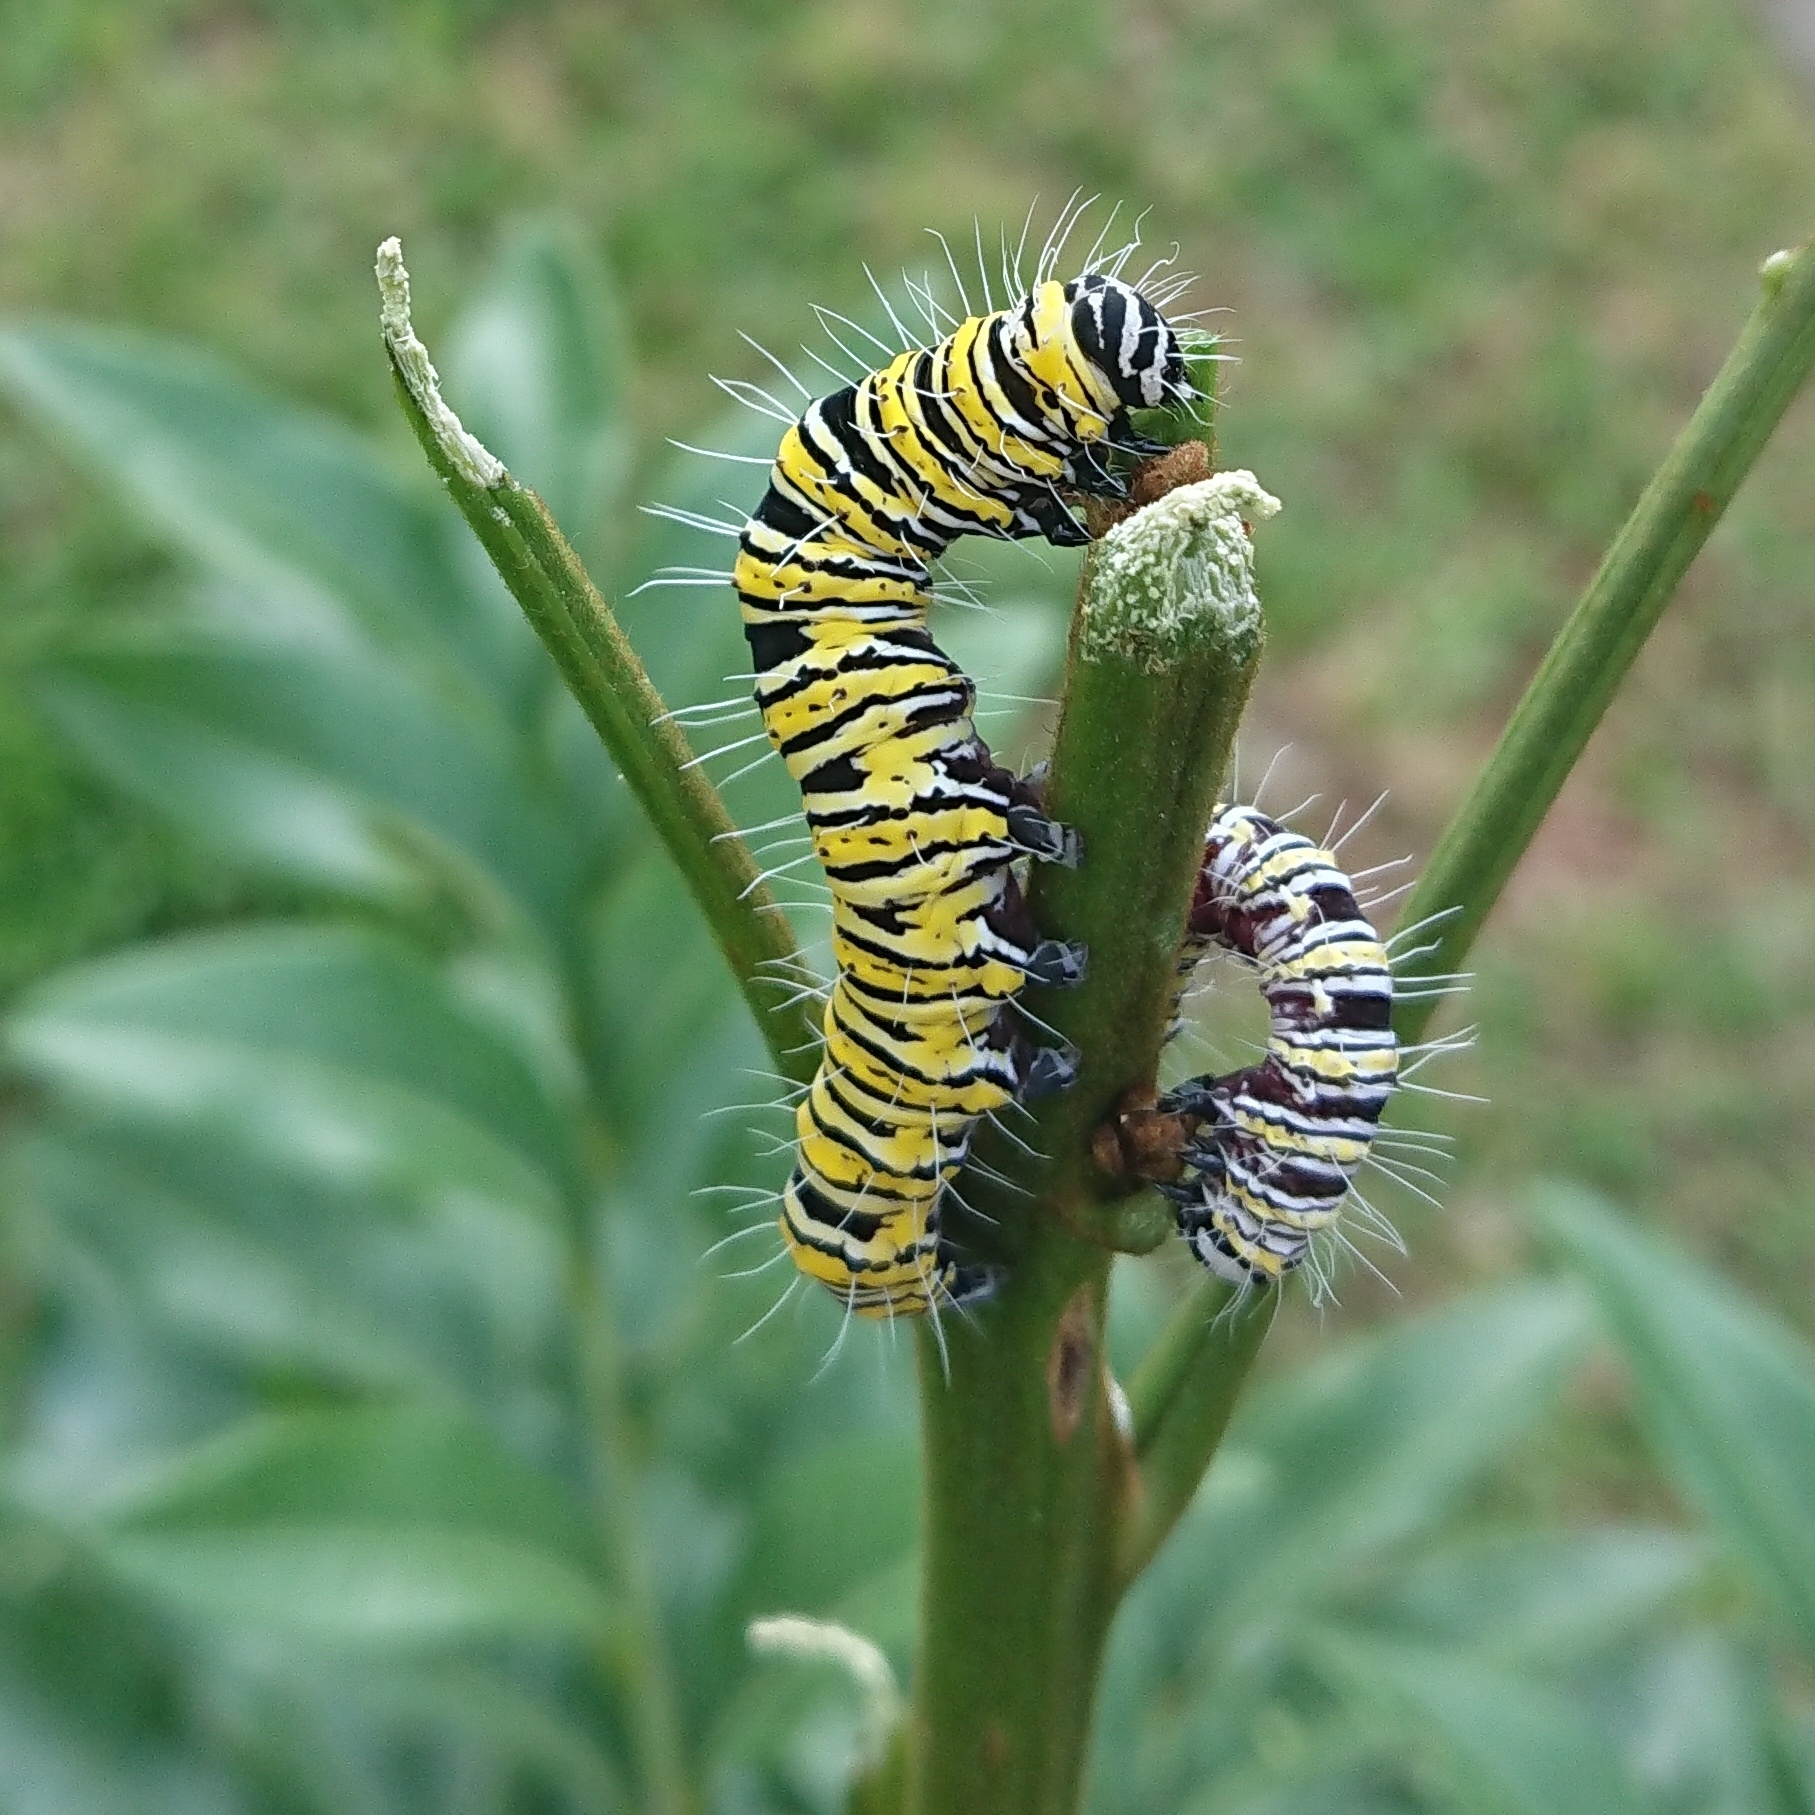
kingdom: Animalia
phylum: Arthropoda
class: Insecta
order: Lepidoptera
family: Erebidae
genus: Egybolis
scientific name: Egybolis vaillantina
